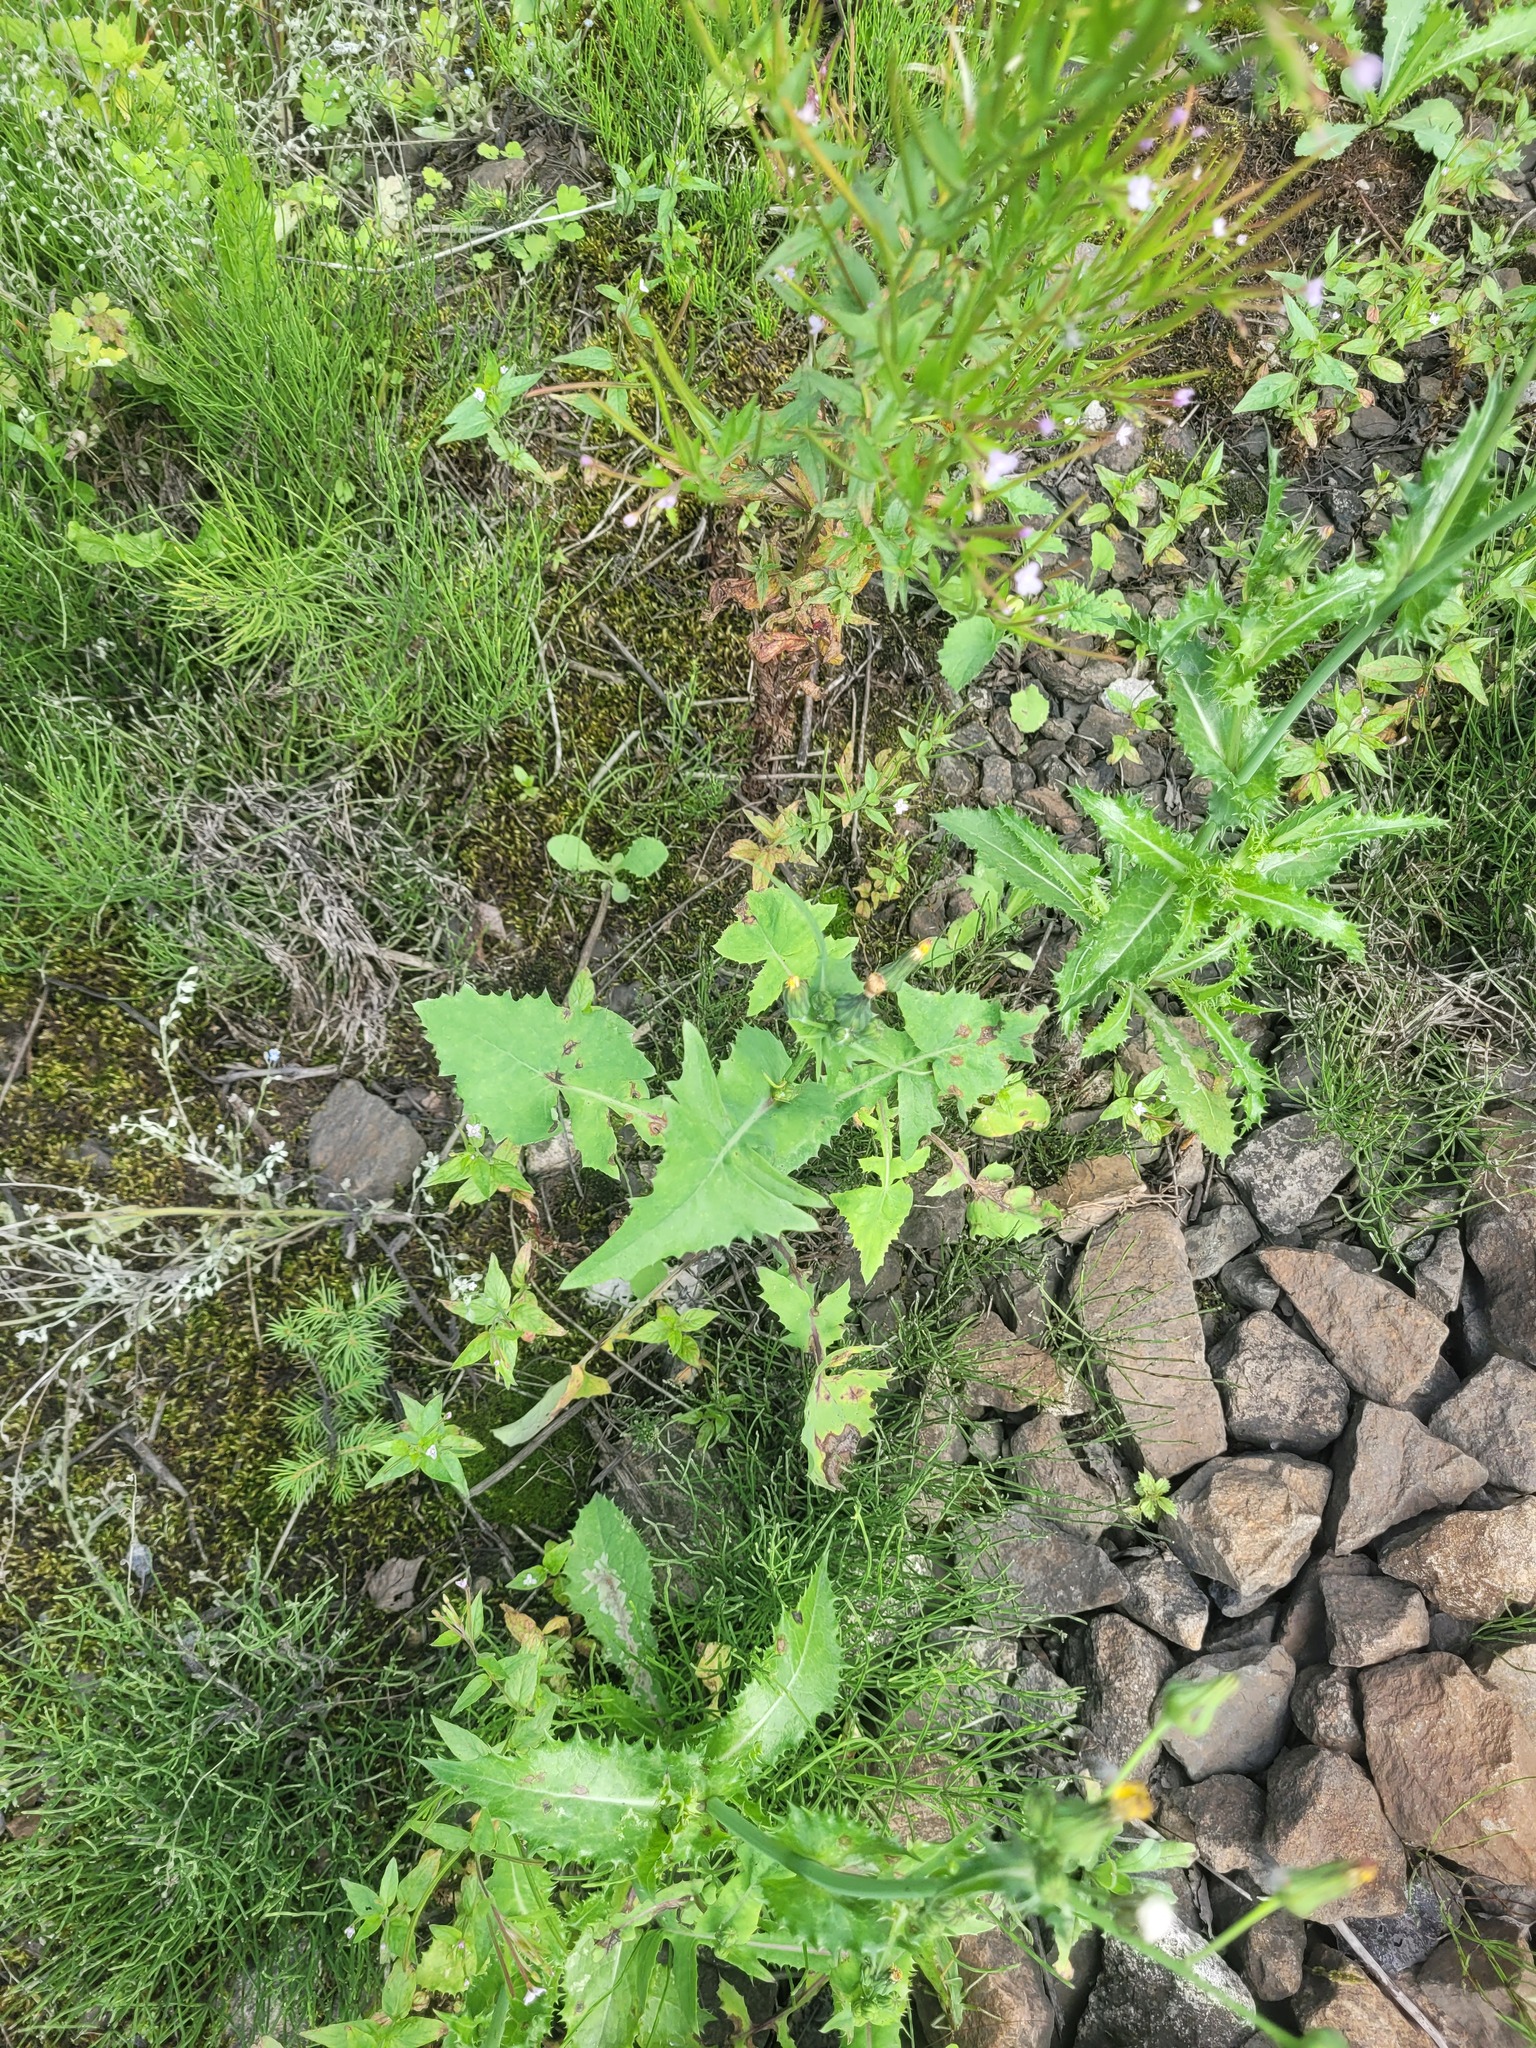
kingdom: Plantae
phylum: Tracheophyta
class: Magnoliopsida
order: Asterales
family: Asteraceae
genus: Sonchus
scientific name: Sonchus oleraceus
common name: Common sowthistle
